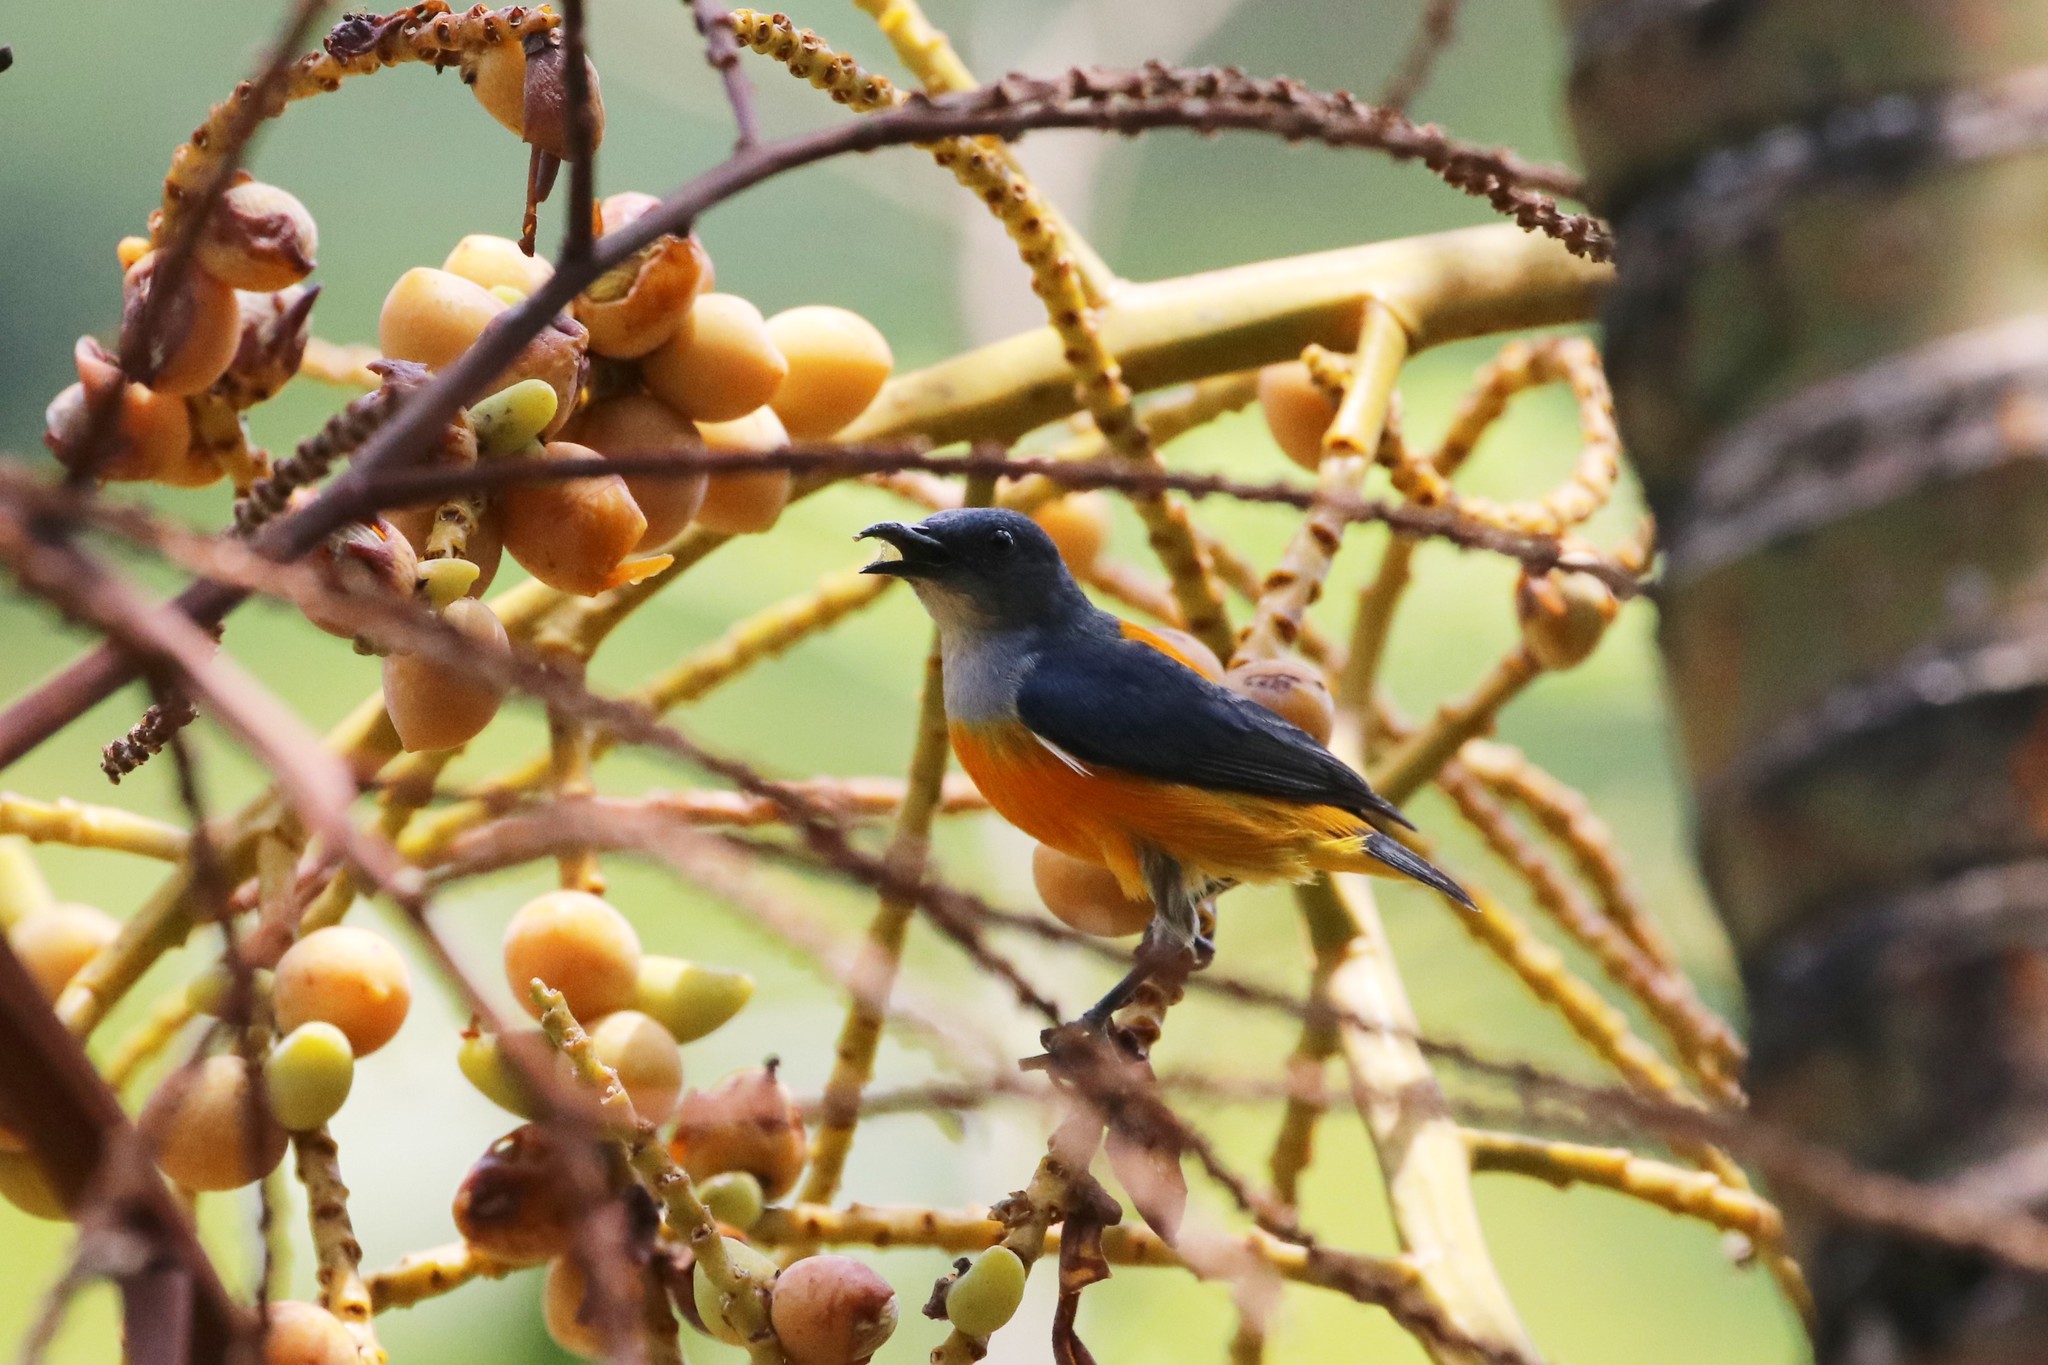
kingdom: Animalia
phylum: Chordata
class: Aves
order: Passeriformes
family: Dicaeidae
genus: Dicaeum
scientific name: Dicaeum trigonostigma
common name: Orange-bellied flowerpecker
